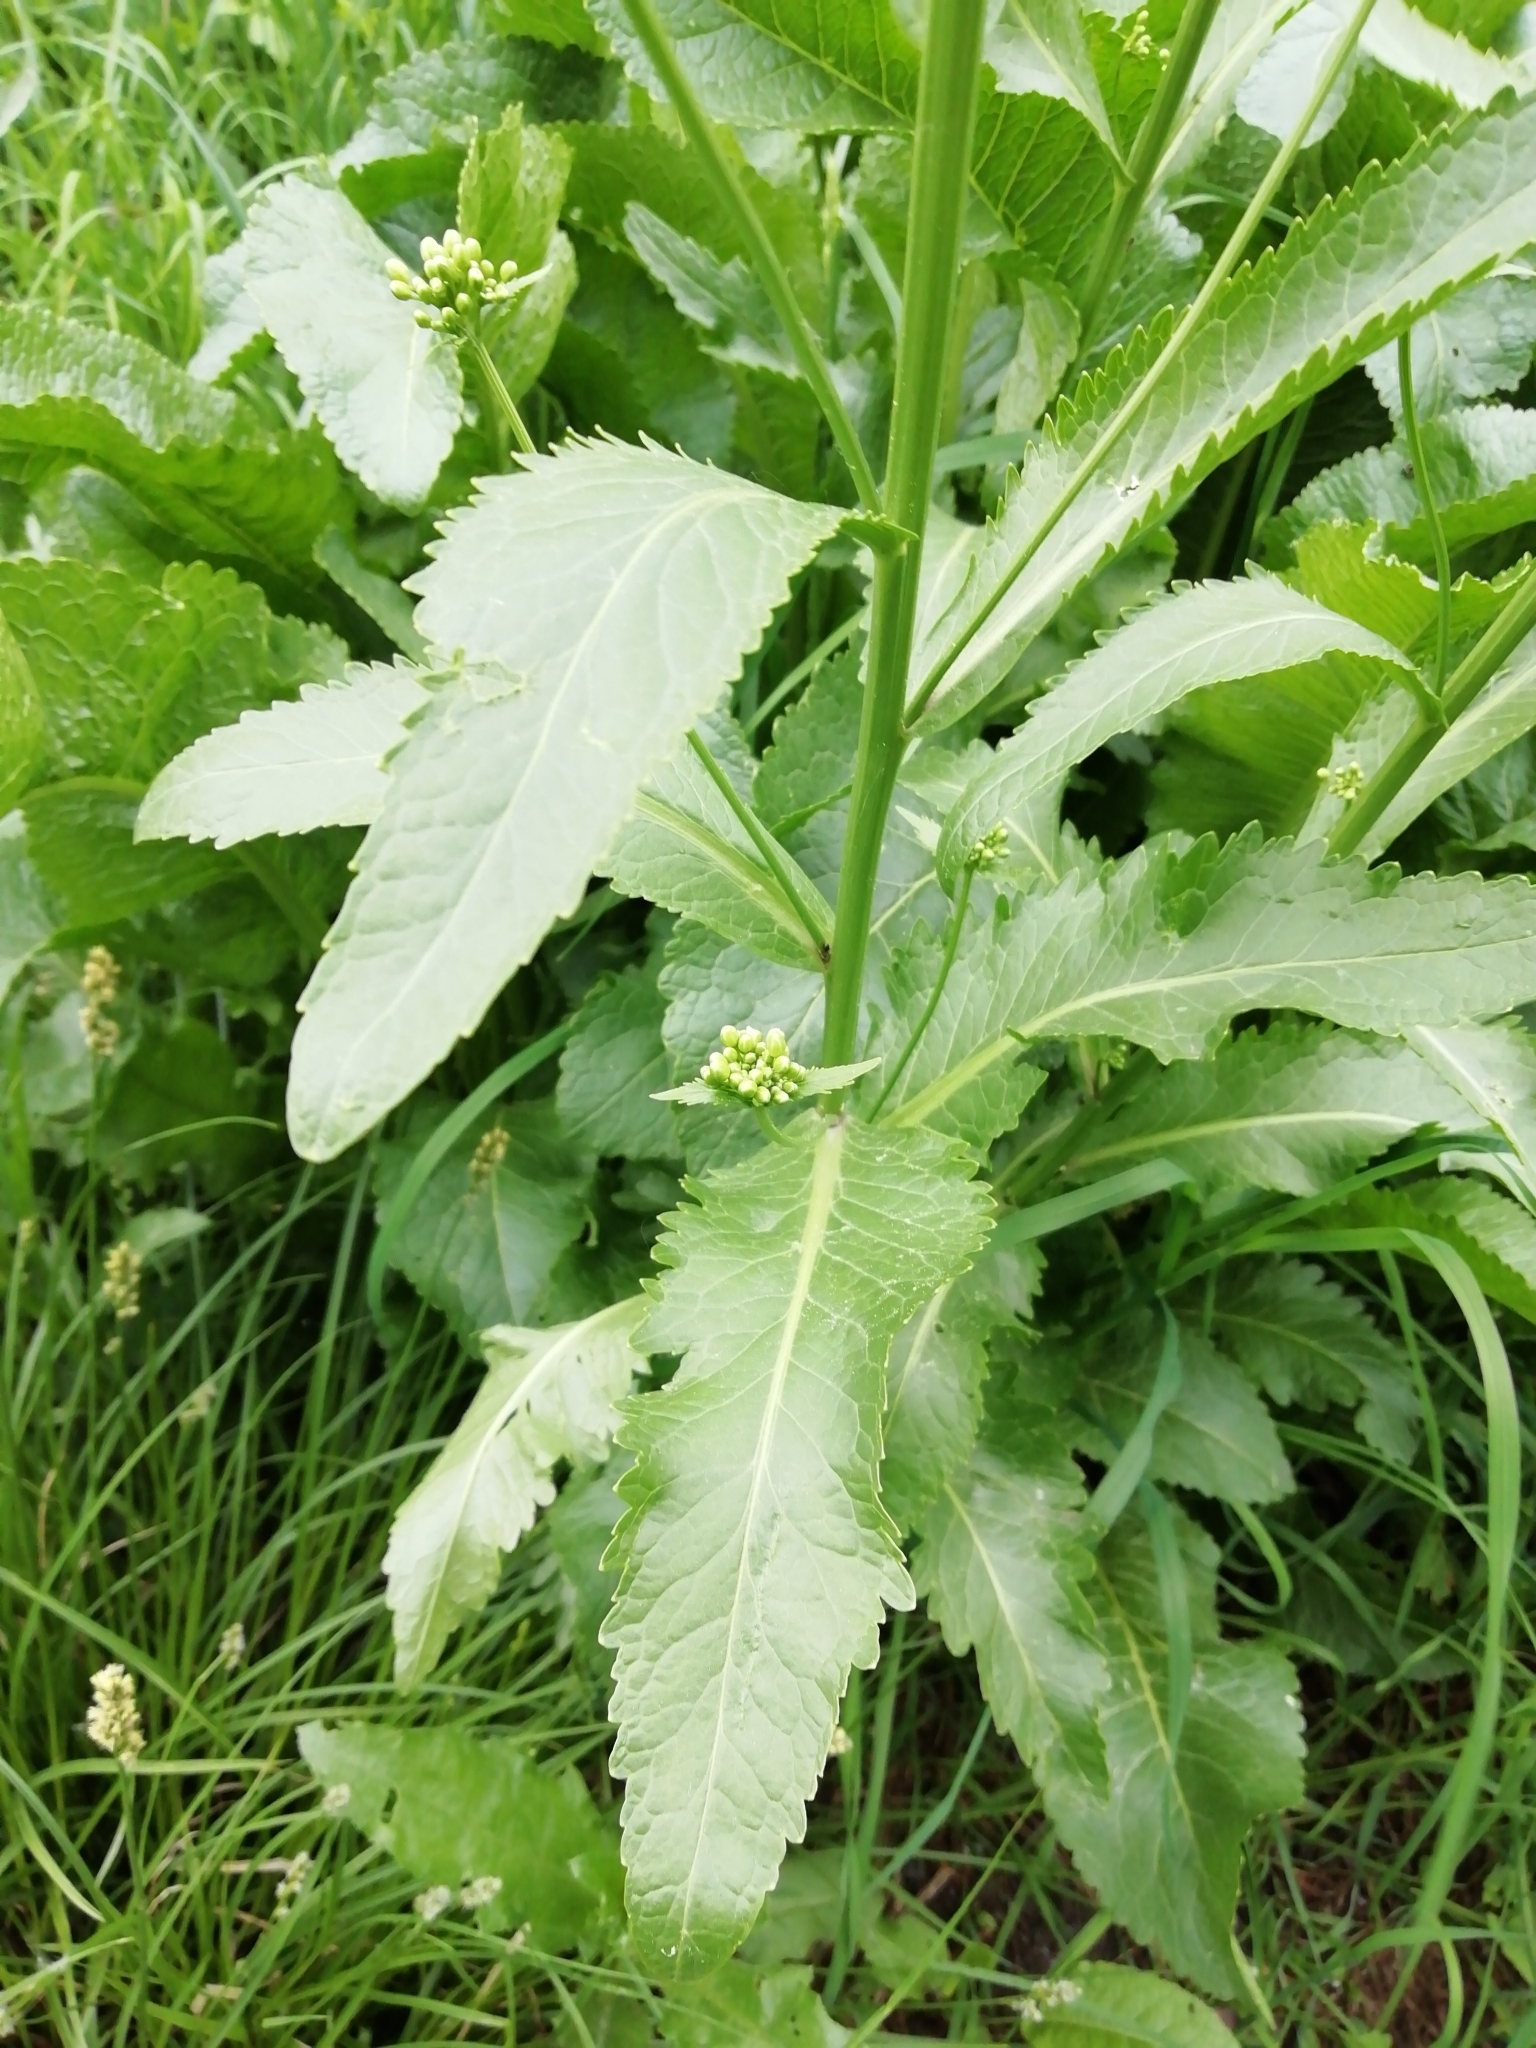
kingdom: Plantae
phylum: Tracheophyta
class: Magnoliopsida
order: Brassicales
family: Brassicaceae
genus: Armoracia
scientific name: Armoracia rusticana
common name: Horseradish
